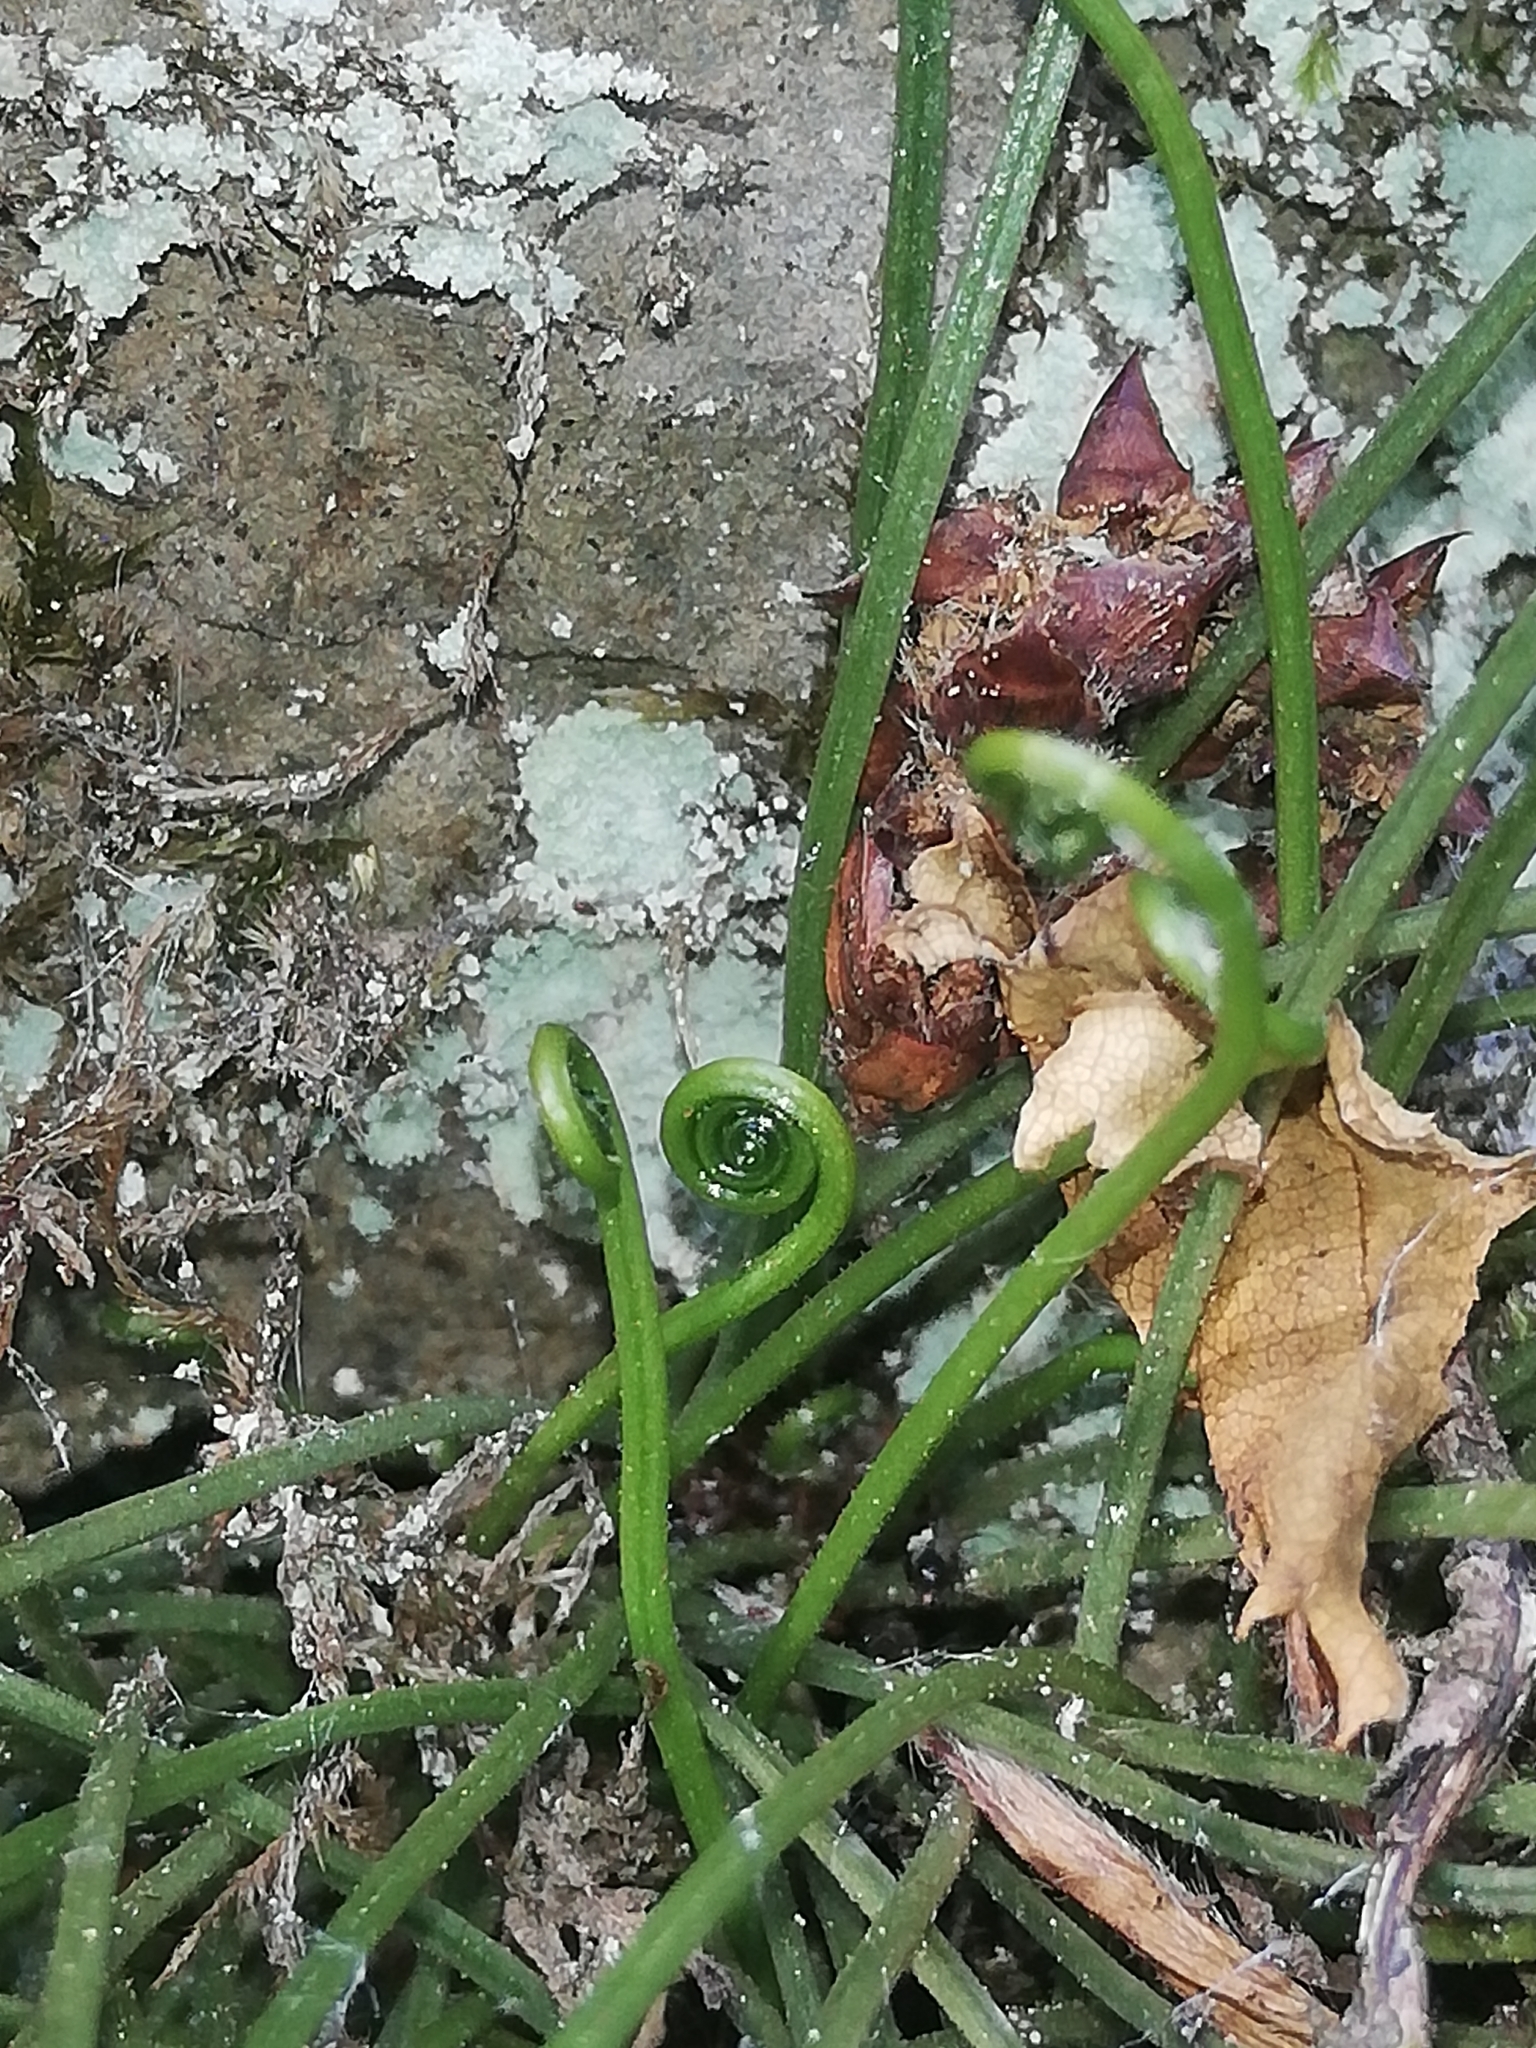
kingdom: Plantae
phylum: Tracheophyta
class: Polypodiopsida
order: Polypodiales
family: Aspleniaceae
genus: Asplenium
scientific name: Asplenium septentrionale
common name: Forked spleenwort
